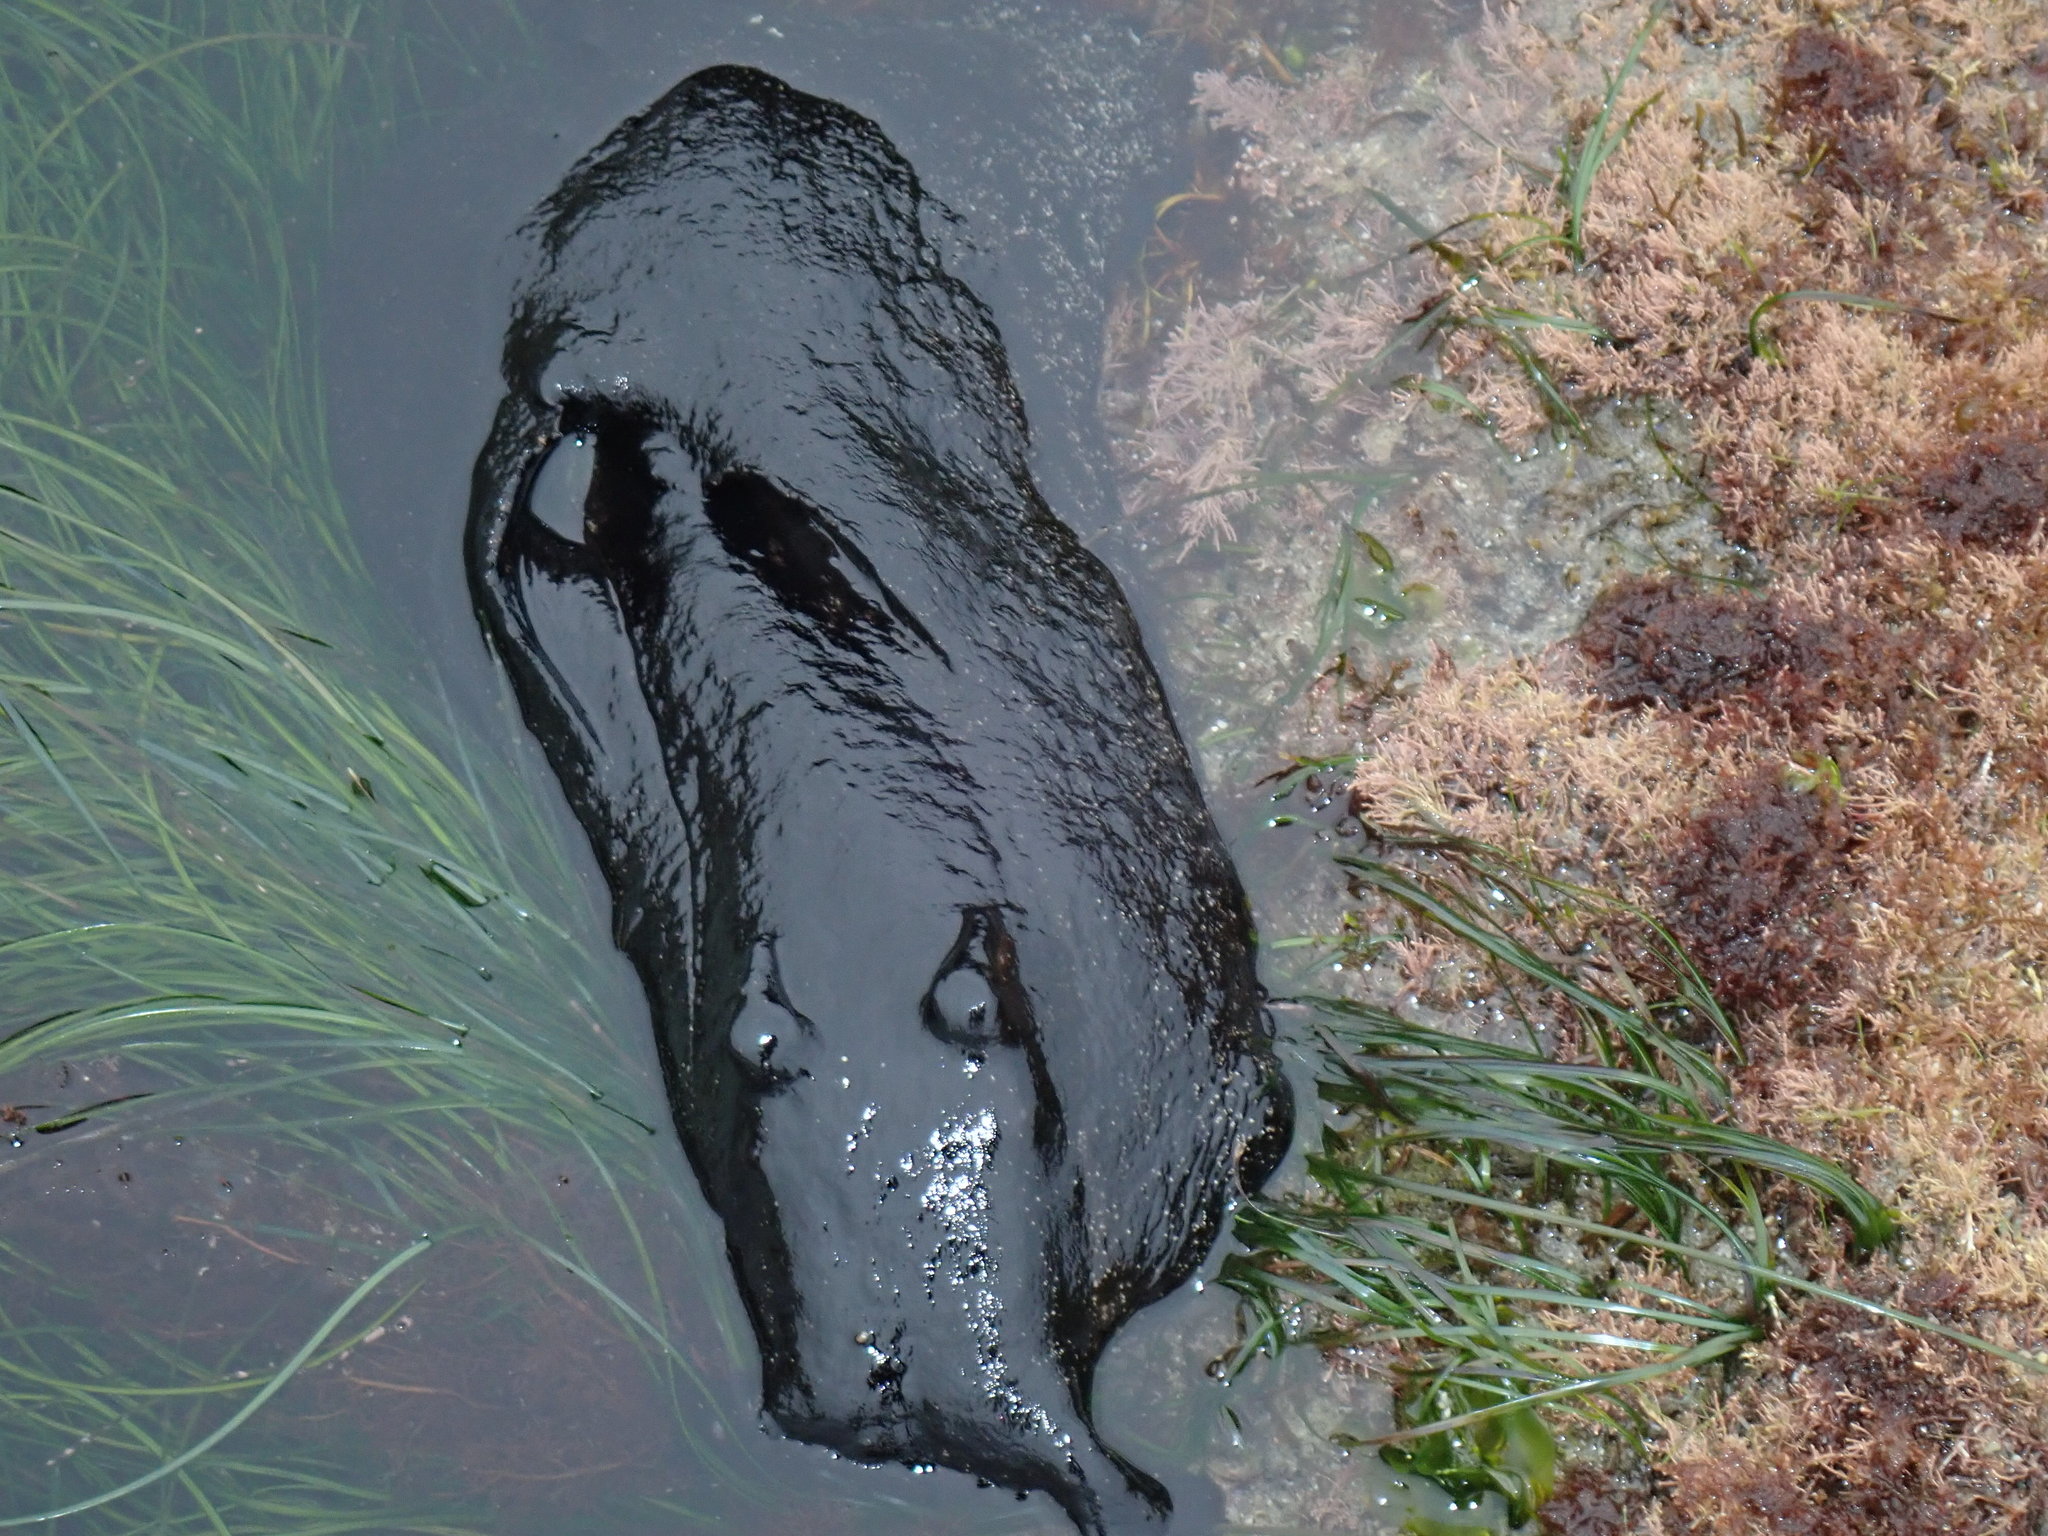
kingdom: Animalia
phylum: Mollusca
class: Gastropoda
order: Aplysiida
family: Aplysiidae
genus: Aplysia
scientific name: Aplysia vaccaria
